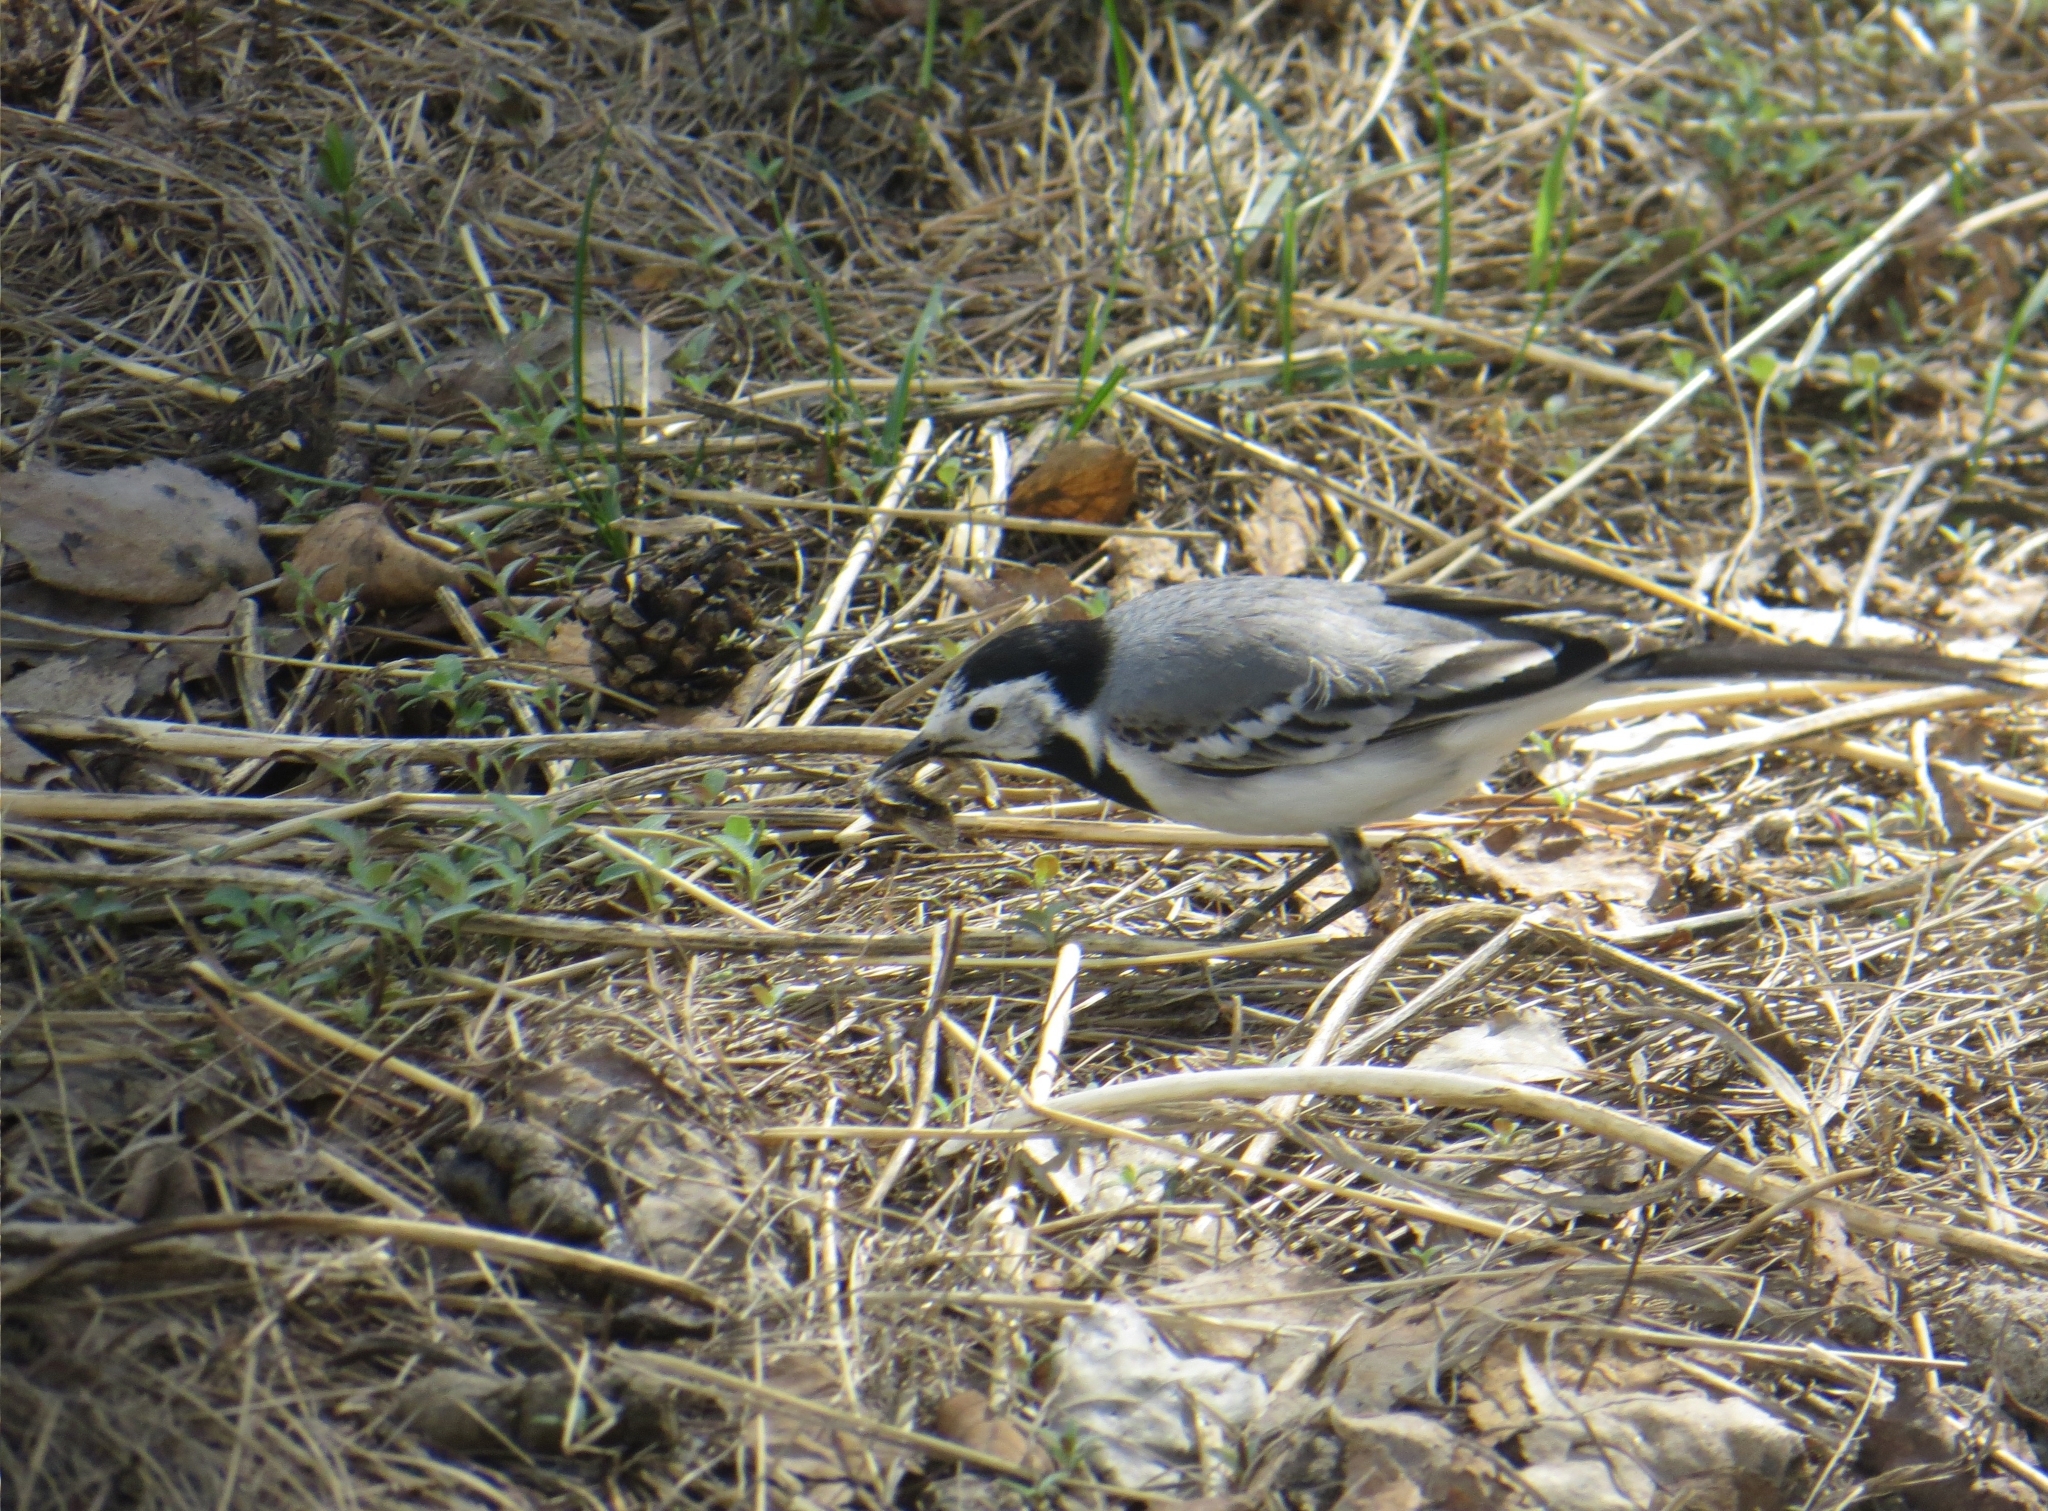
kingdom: Animalia
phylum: Chordata
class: Aves
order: Passeriformes
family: Motacillidae
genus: Motacilla
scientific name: Motacilla alba
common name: White wagtail
